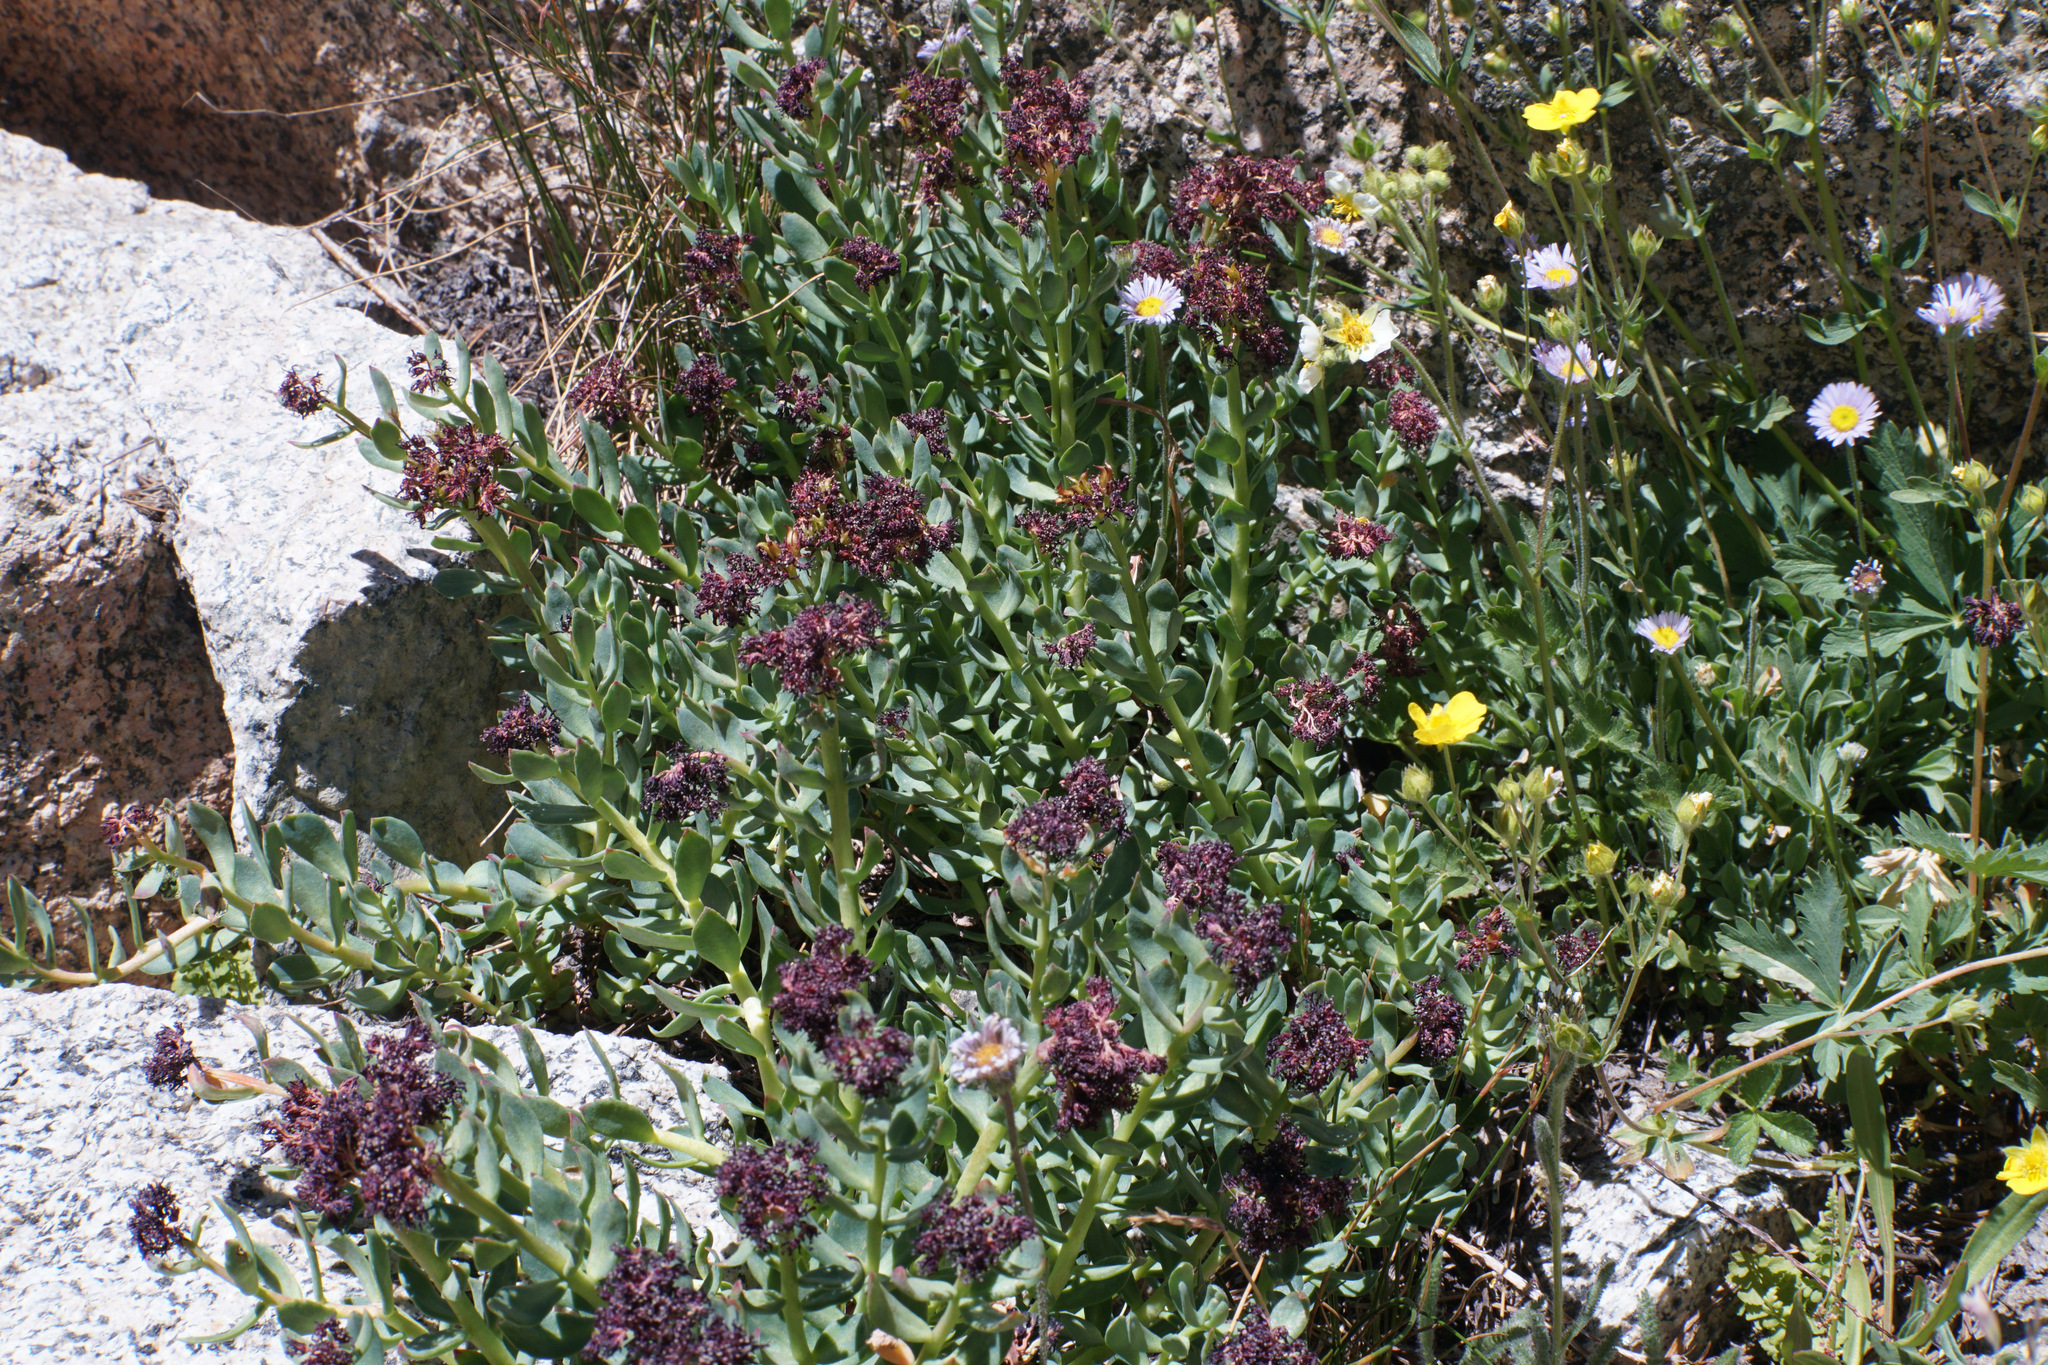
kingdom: Plantae
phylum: Tracheophyta
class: Magnoliopsida
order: Saxifragales
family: Crassulaceae
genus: Rhodiola
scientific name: Rhodiola integrifolia
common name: Western roseroot
